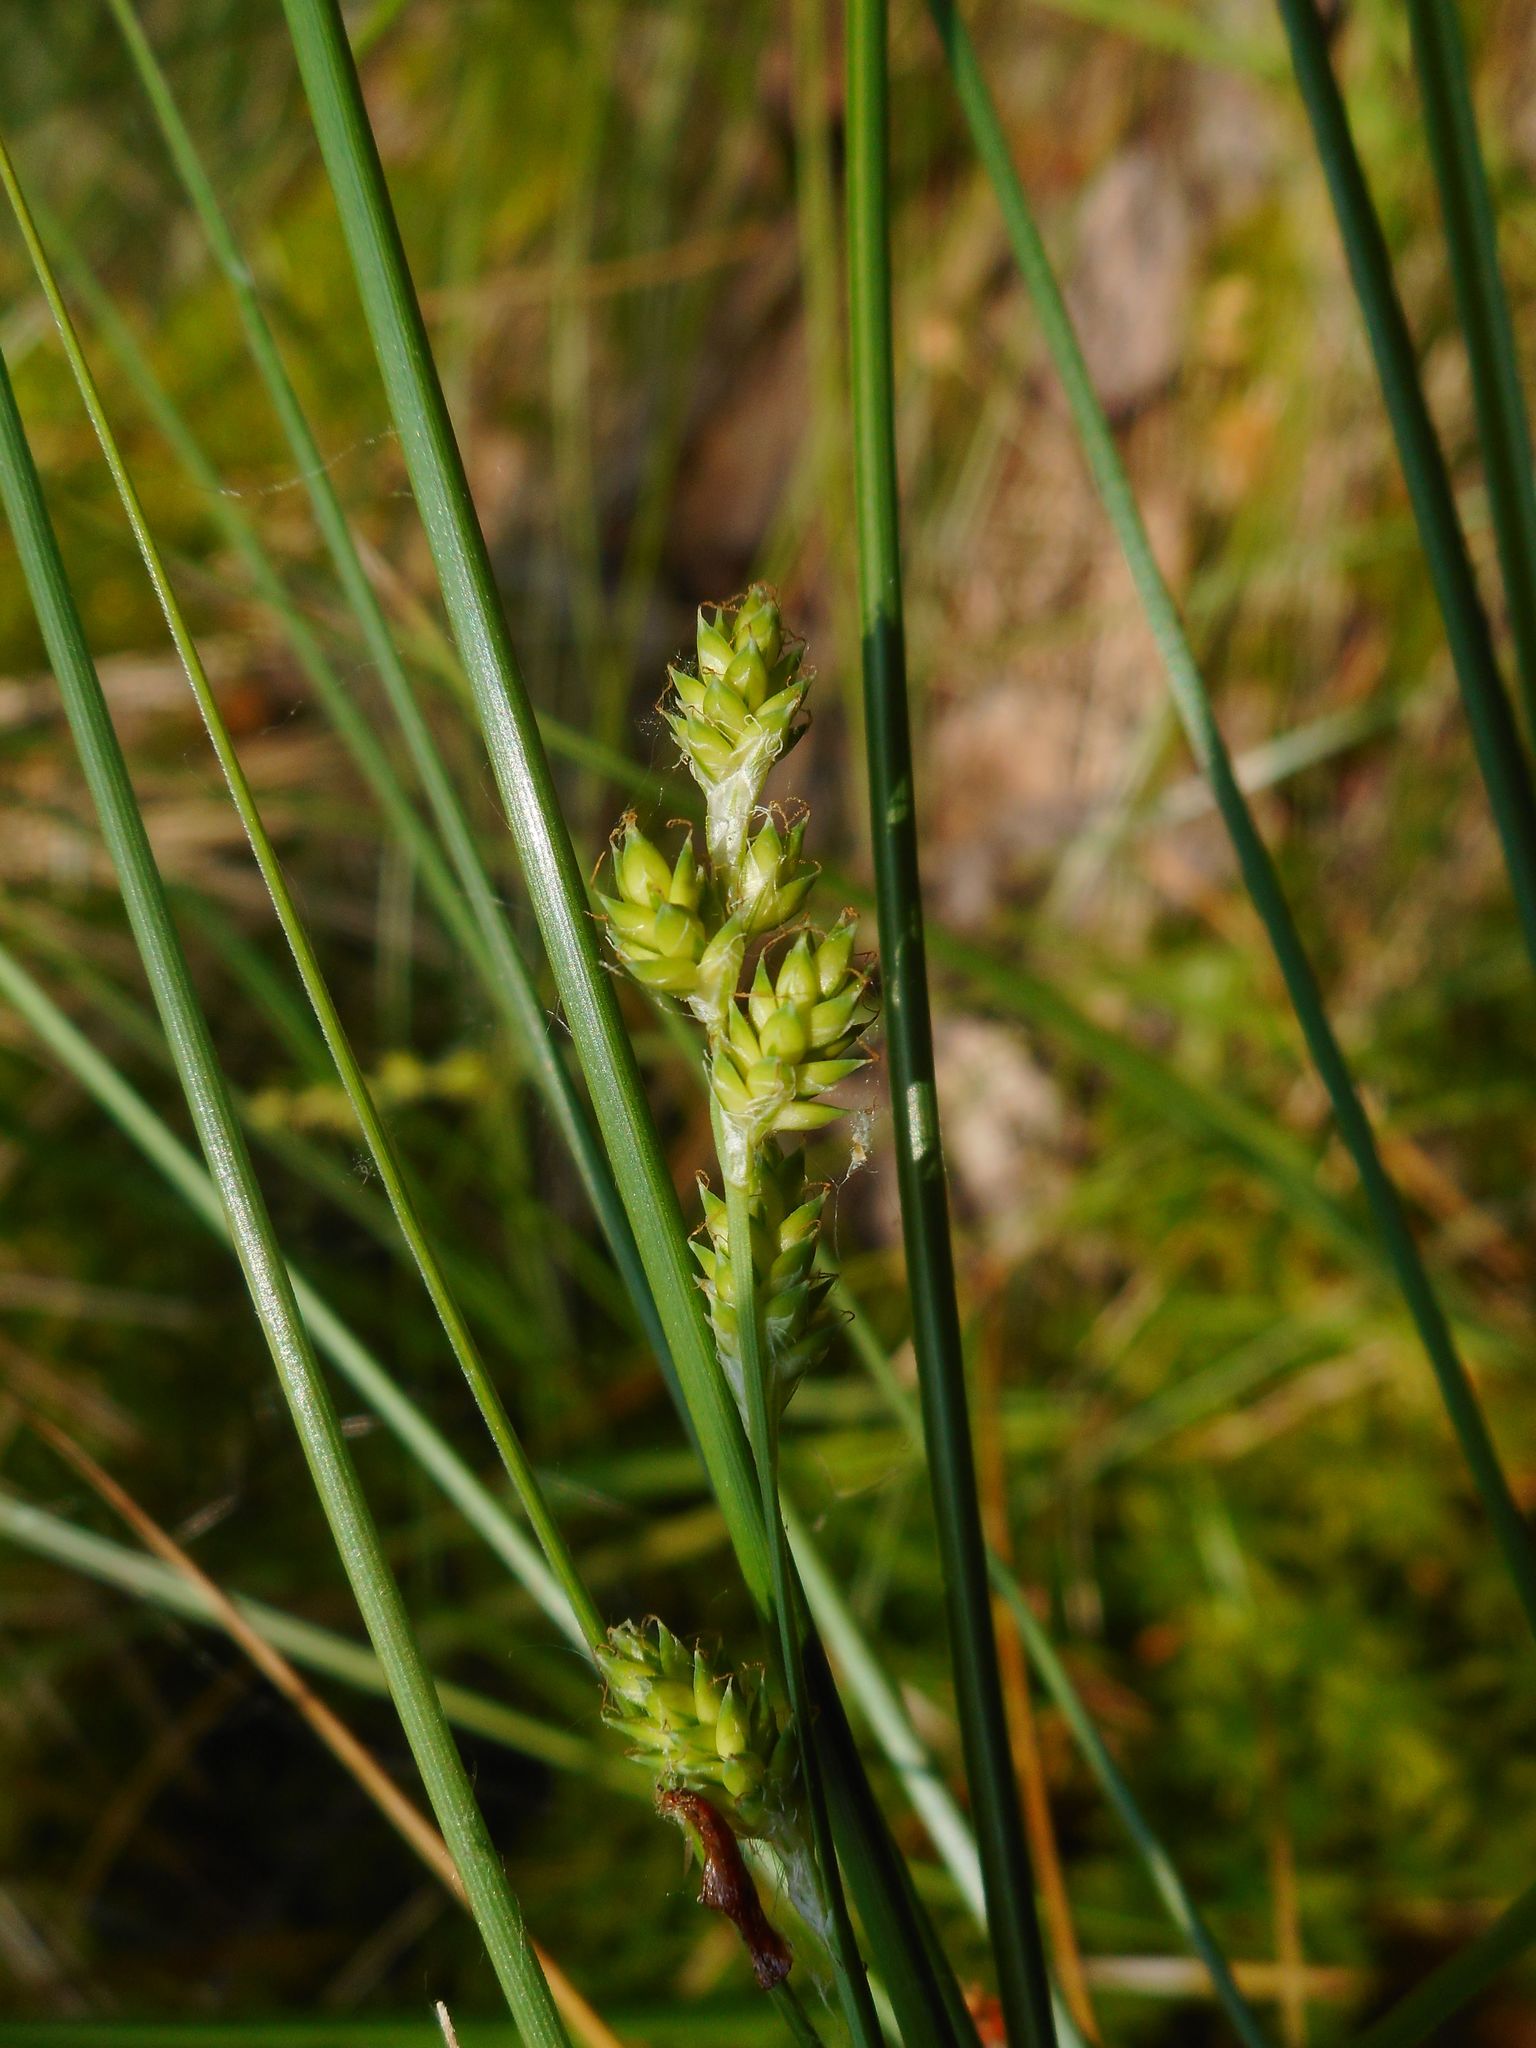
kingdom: Plantae
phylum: Tracheophyta
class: Liliopsida
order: Poales
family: Cyperaceae
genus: Carex
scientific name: Carex canescens
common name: White sedge
